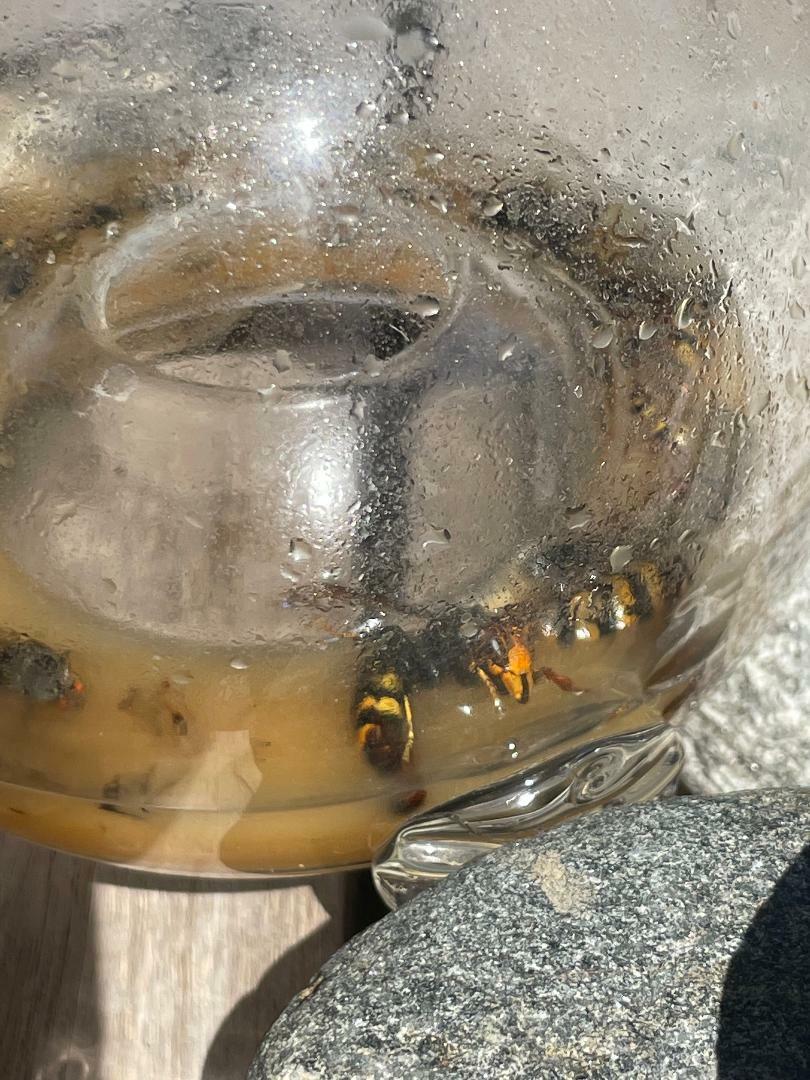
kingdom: Animalia
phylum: Arthropoda
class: Insecta
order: Hymenoptera
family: Vespidae
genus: Vespa
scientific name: Vespa velutina
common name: Asian hornet
